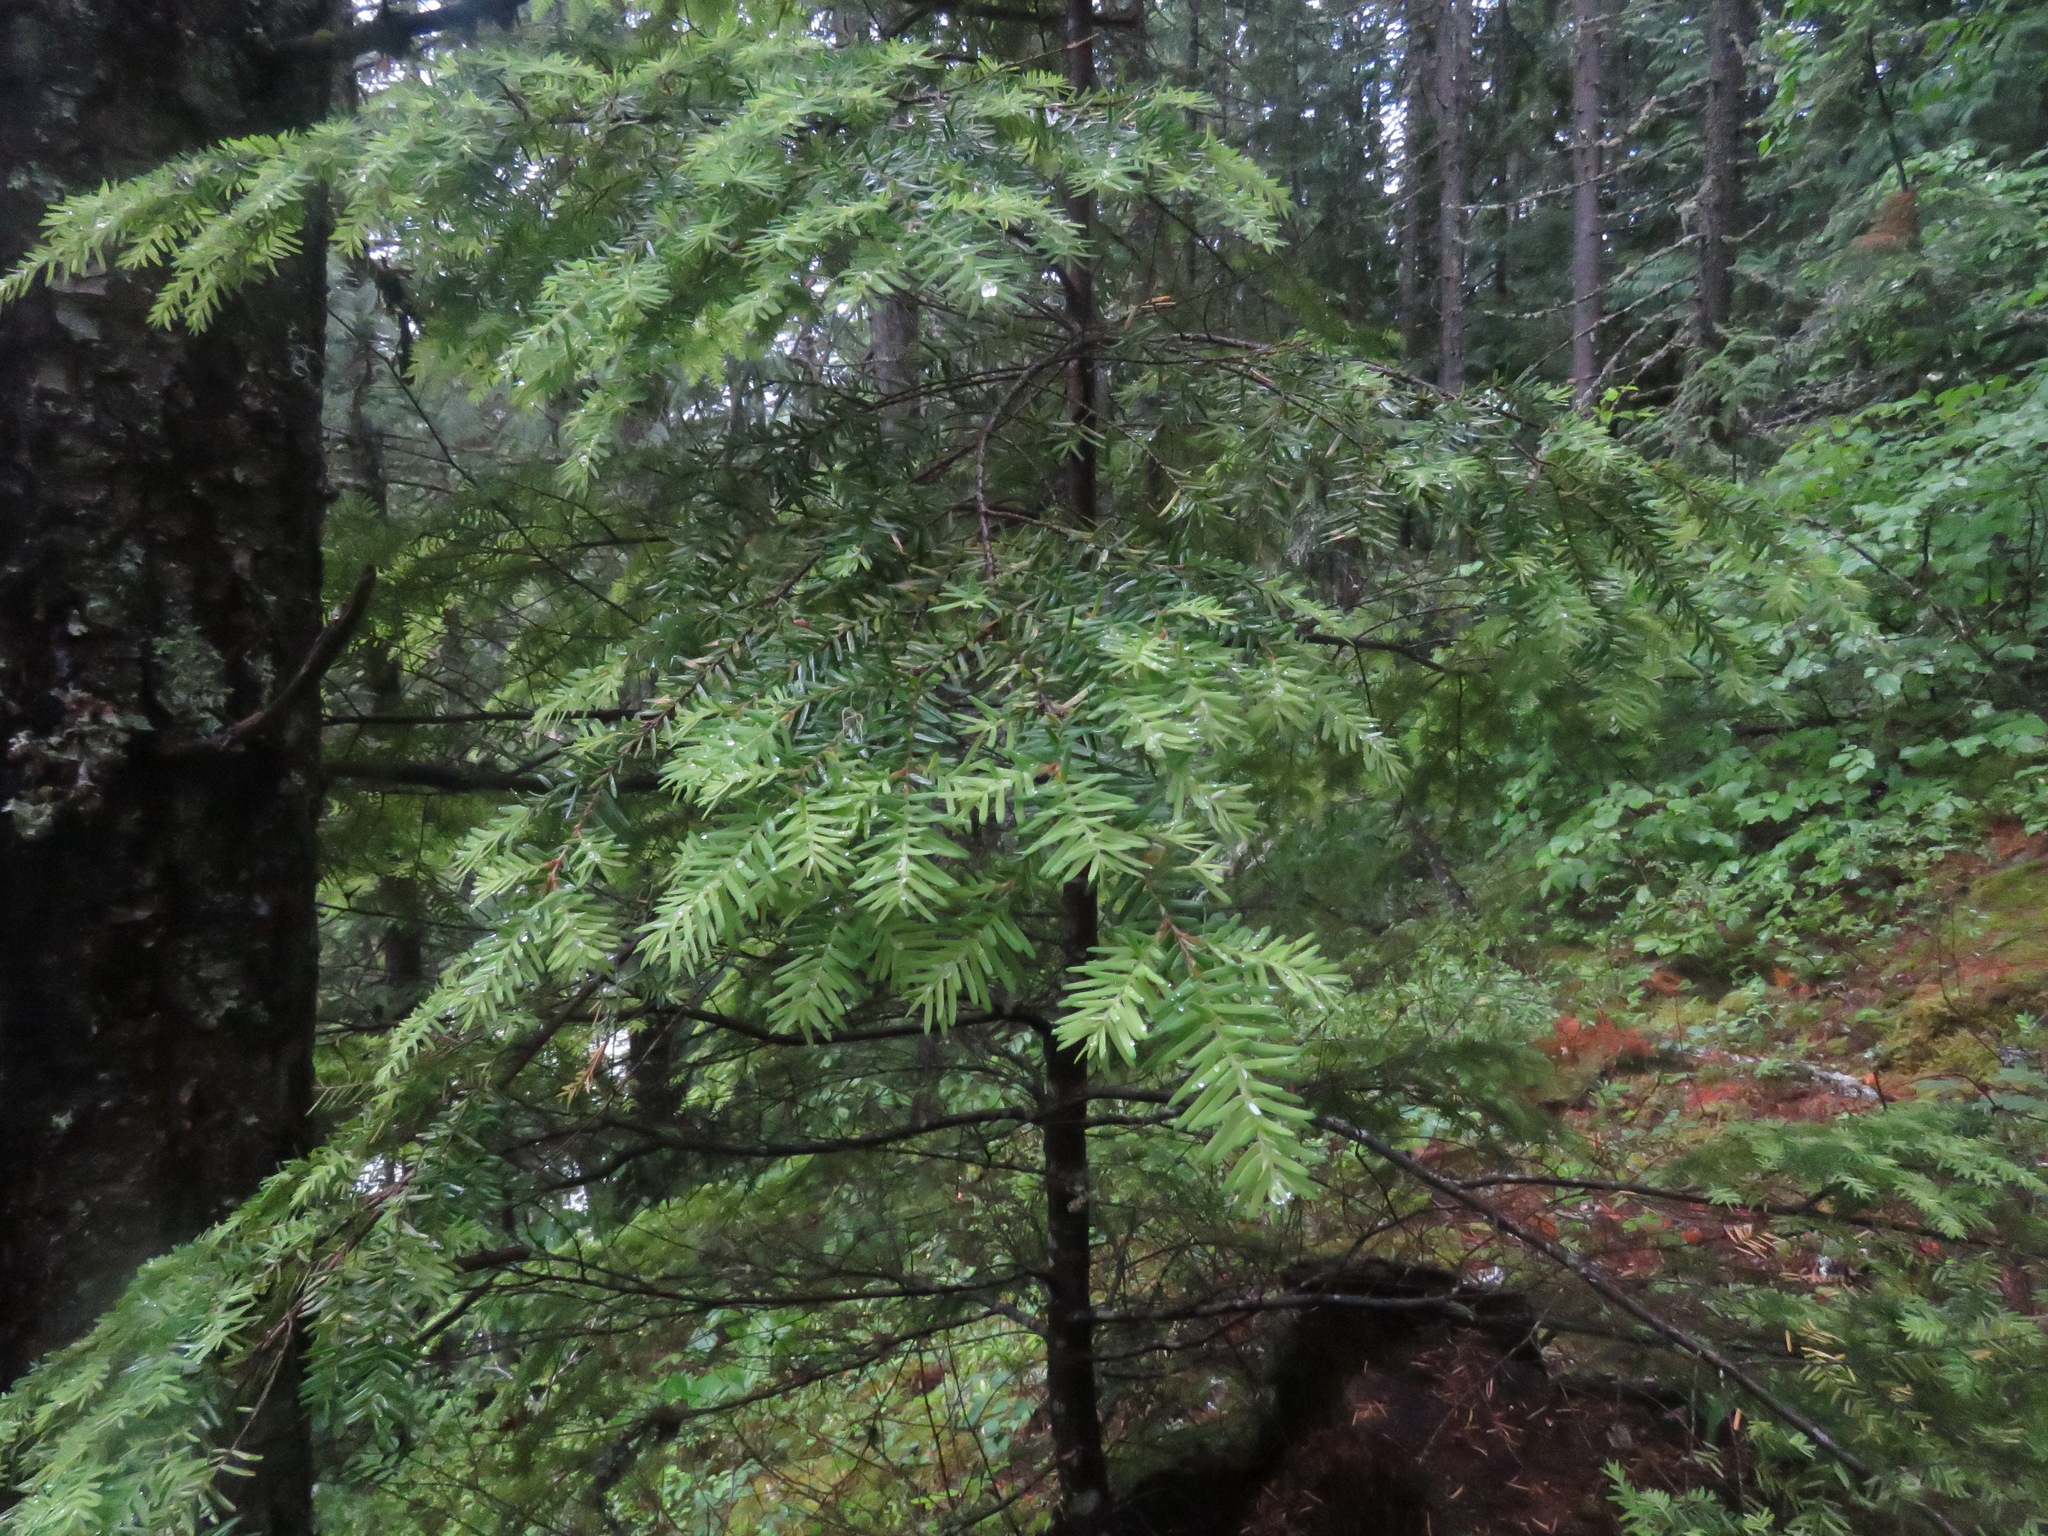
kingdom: Plantae
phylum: Tracheophyta
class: Pinopsida
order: Pinales
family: Pinaceae
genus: Tsuga
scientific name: Tsuga heterophylla
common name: Western hemlock
